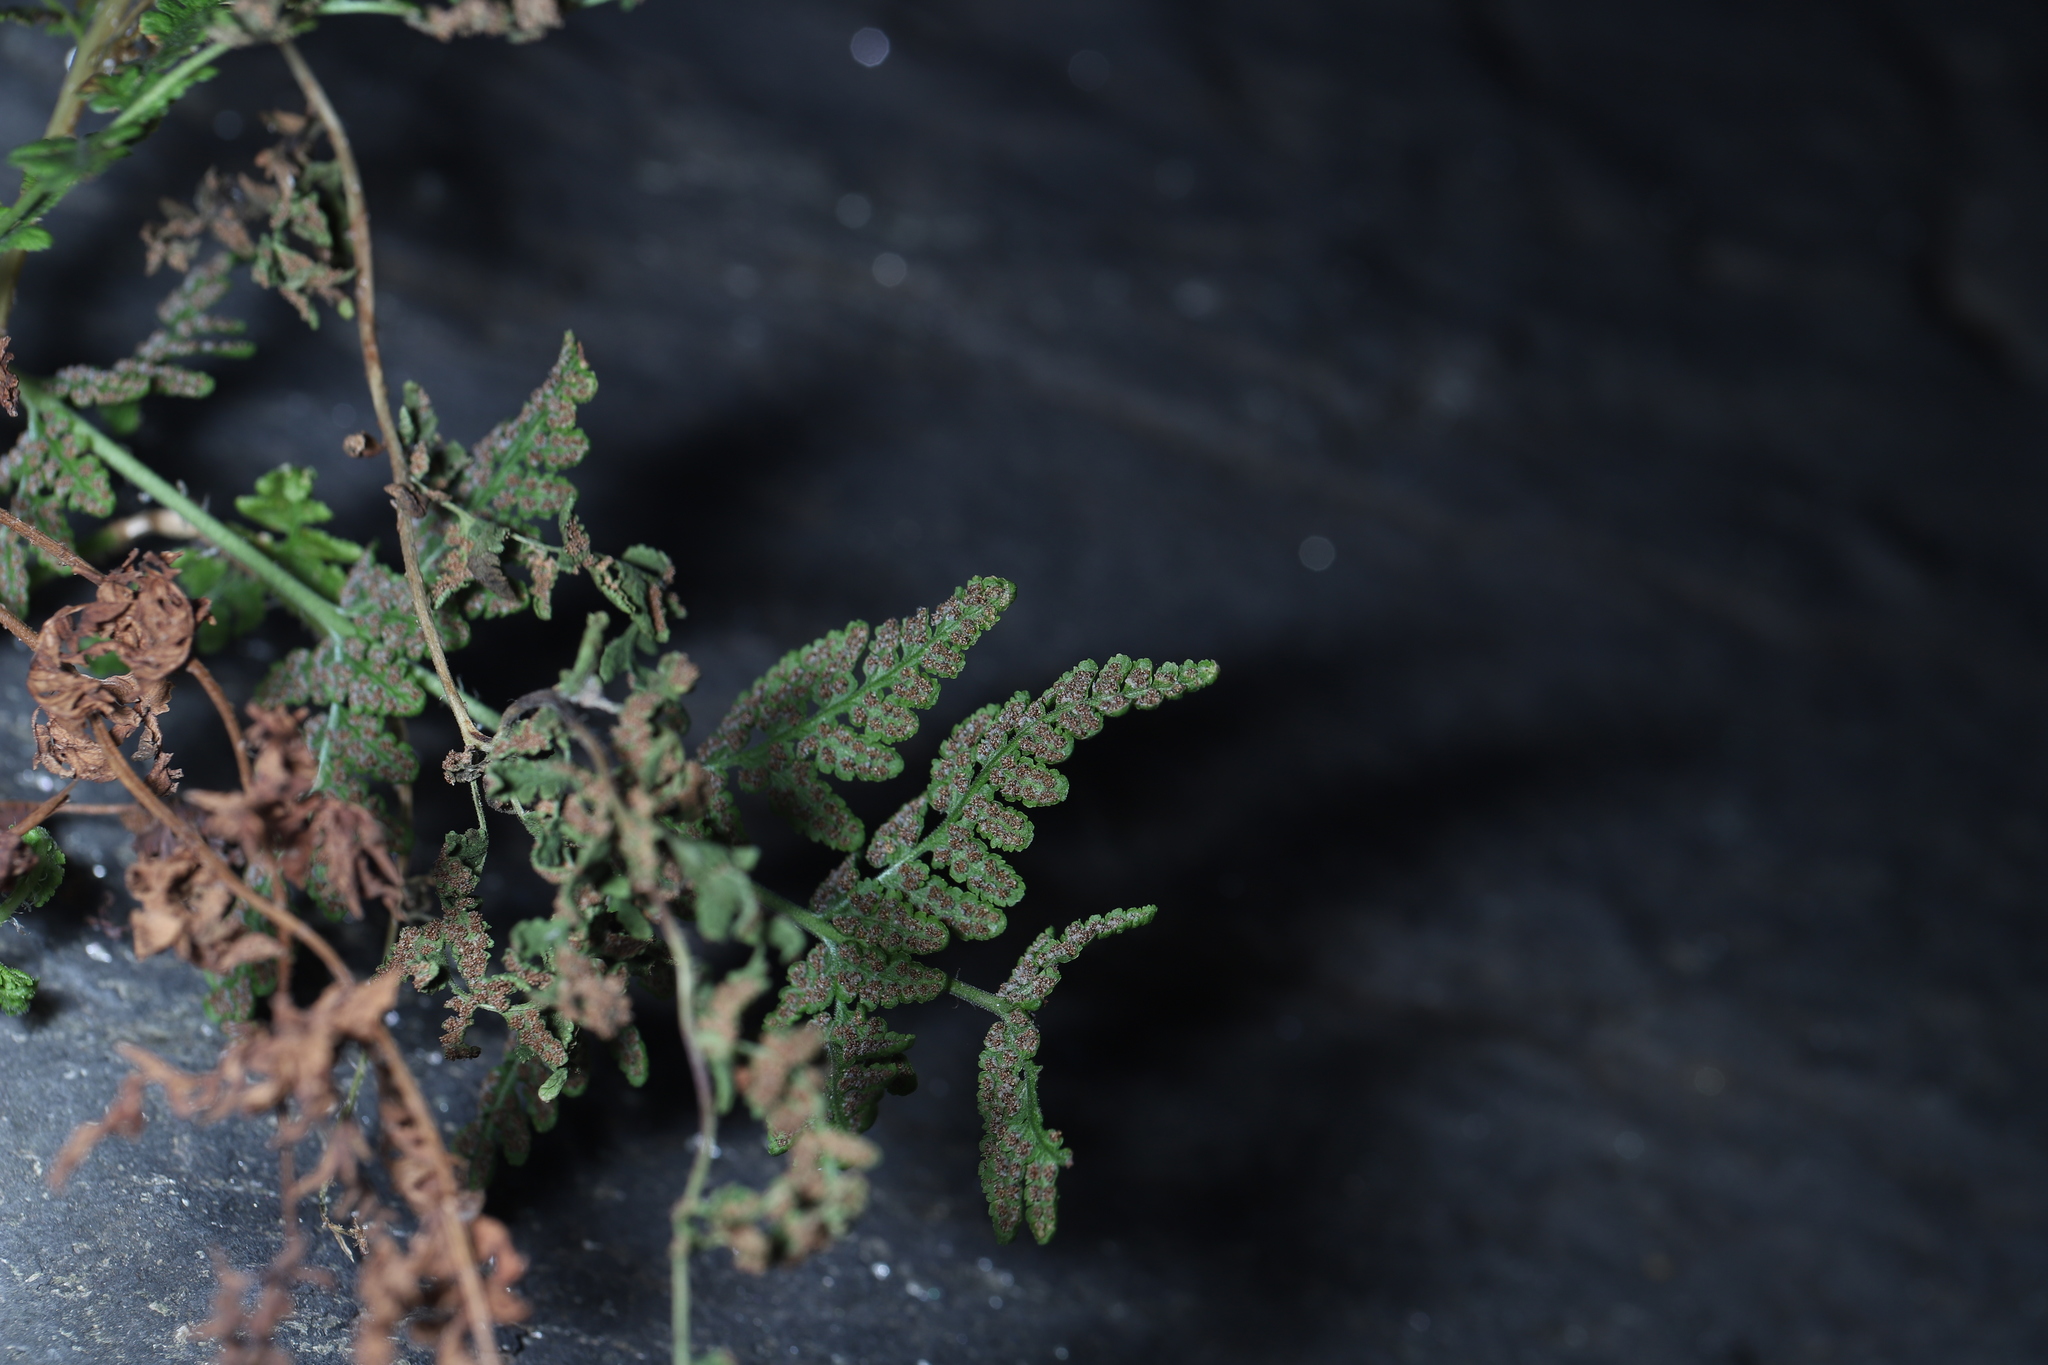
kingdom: Plantae
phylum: Tracheophyta
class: Polypodiopsida
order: Polypodiales
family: Woodsiaceae
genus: Physematium
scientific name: Physematium obtusum
